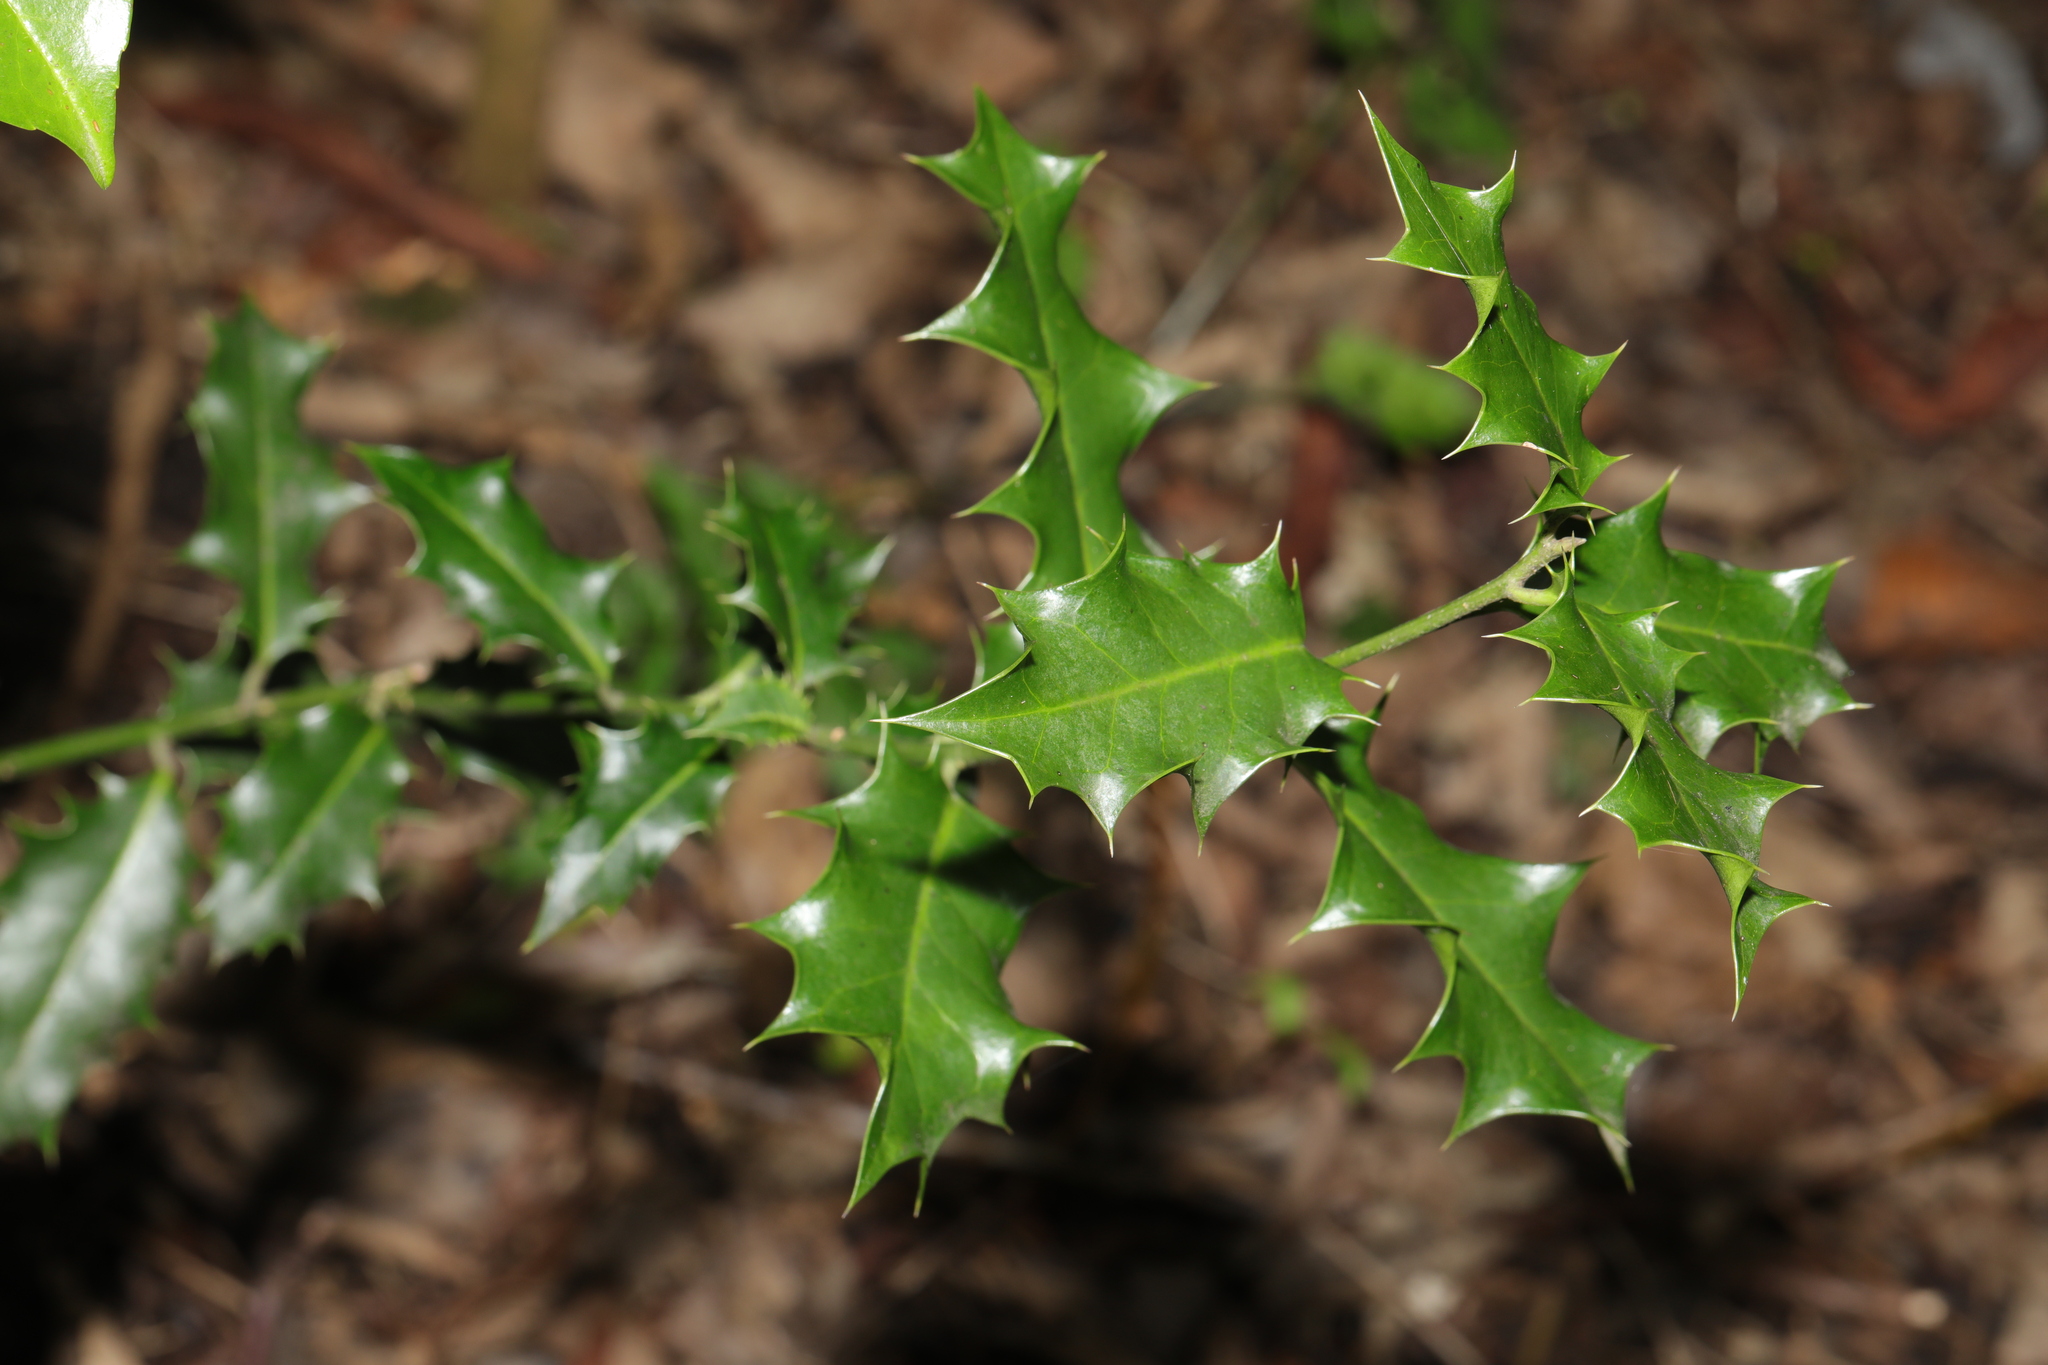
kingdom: Plantae
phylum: Tracheophyta
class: Magnoliopsida
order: Aquifoliales
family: Aquifoliaceae
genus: Ilex
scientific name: Ilex aquifolium
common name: English holly
